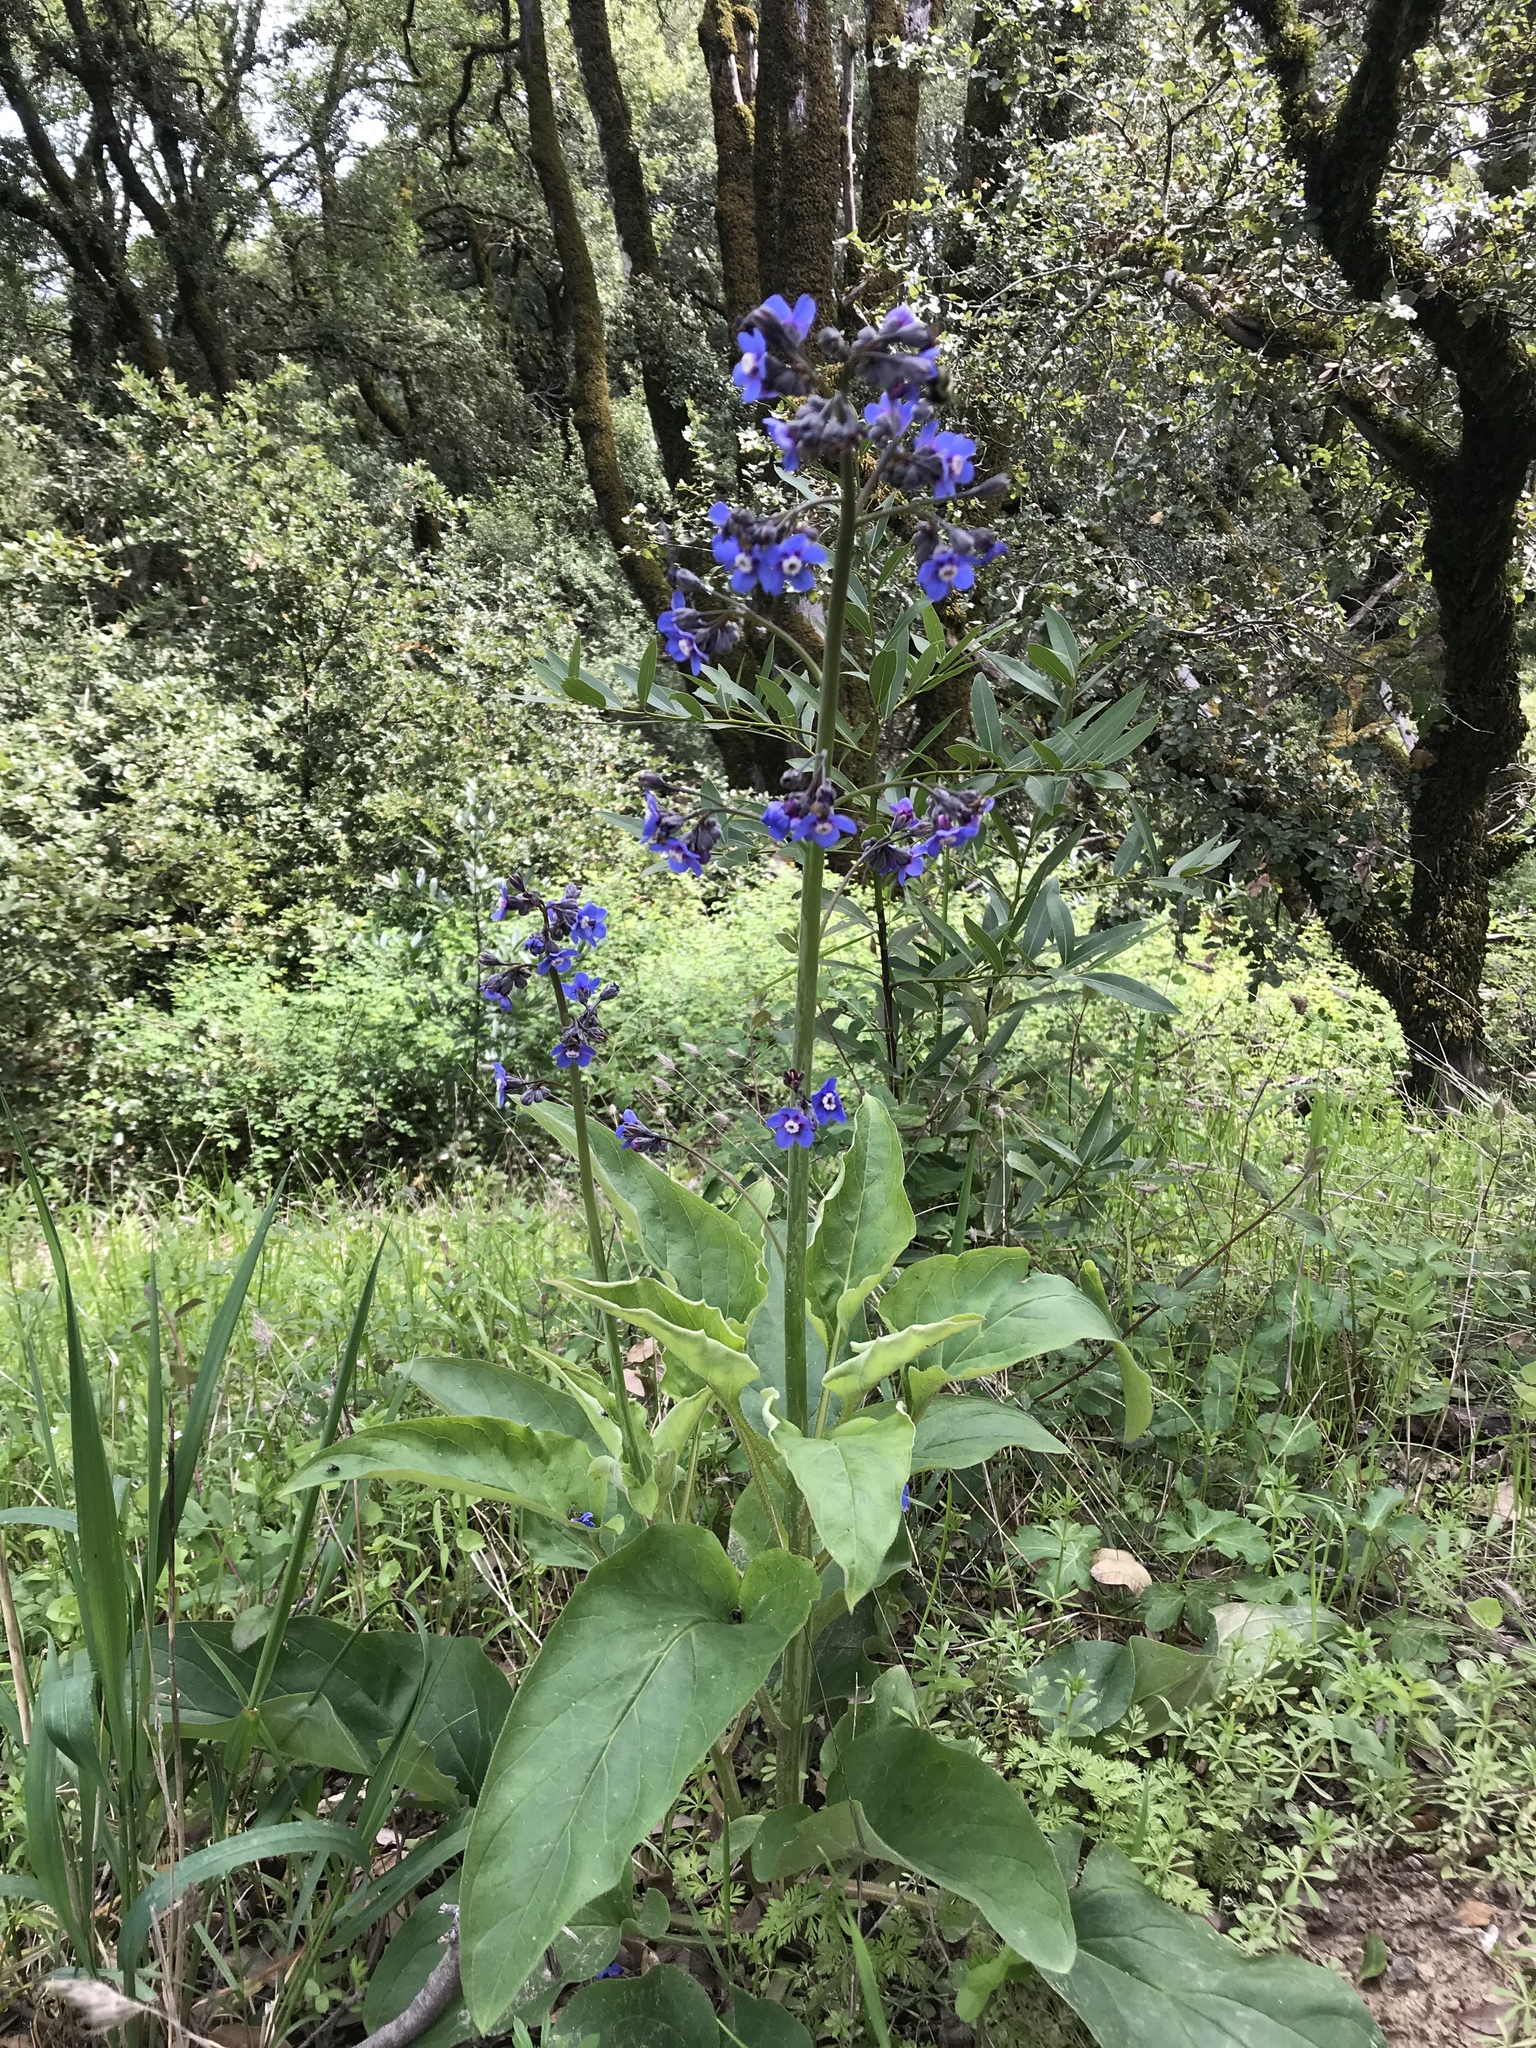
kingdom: Plantae
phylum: Tracheophyta
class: Magnoliopsida
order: Boraginales
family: Boraginaceae
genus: Adelinia
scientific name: Adelinia grande
